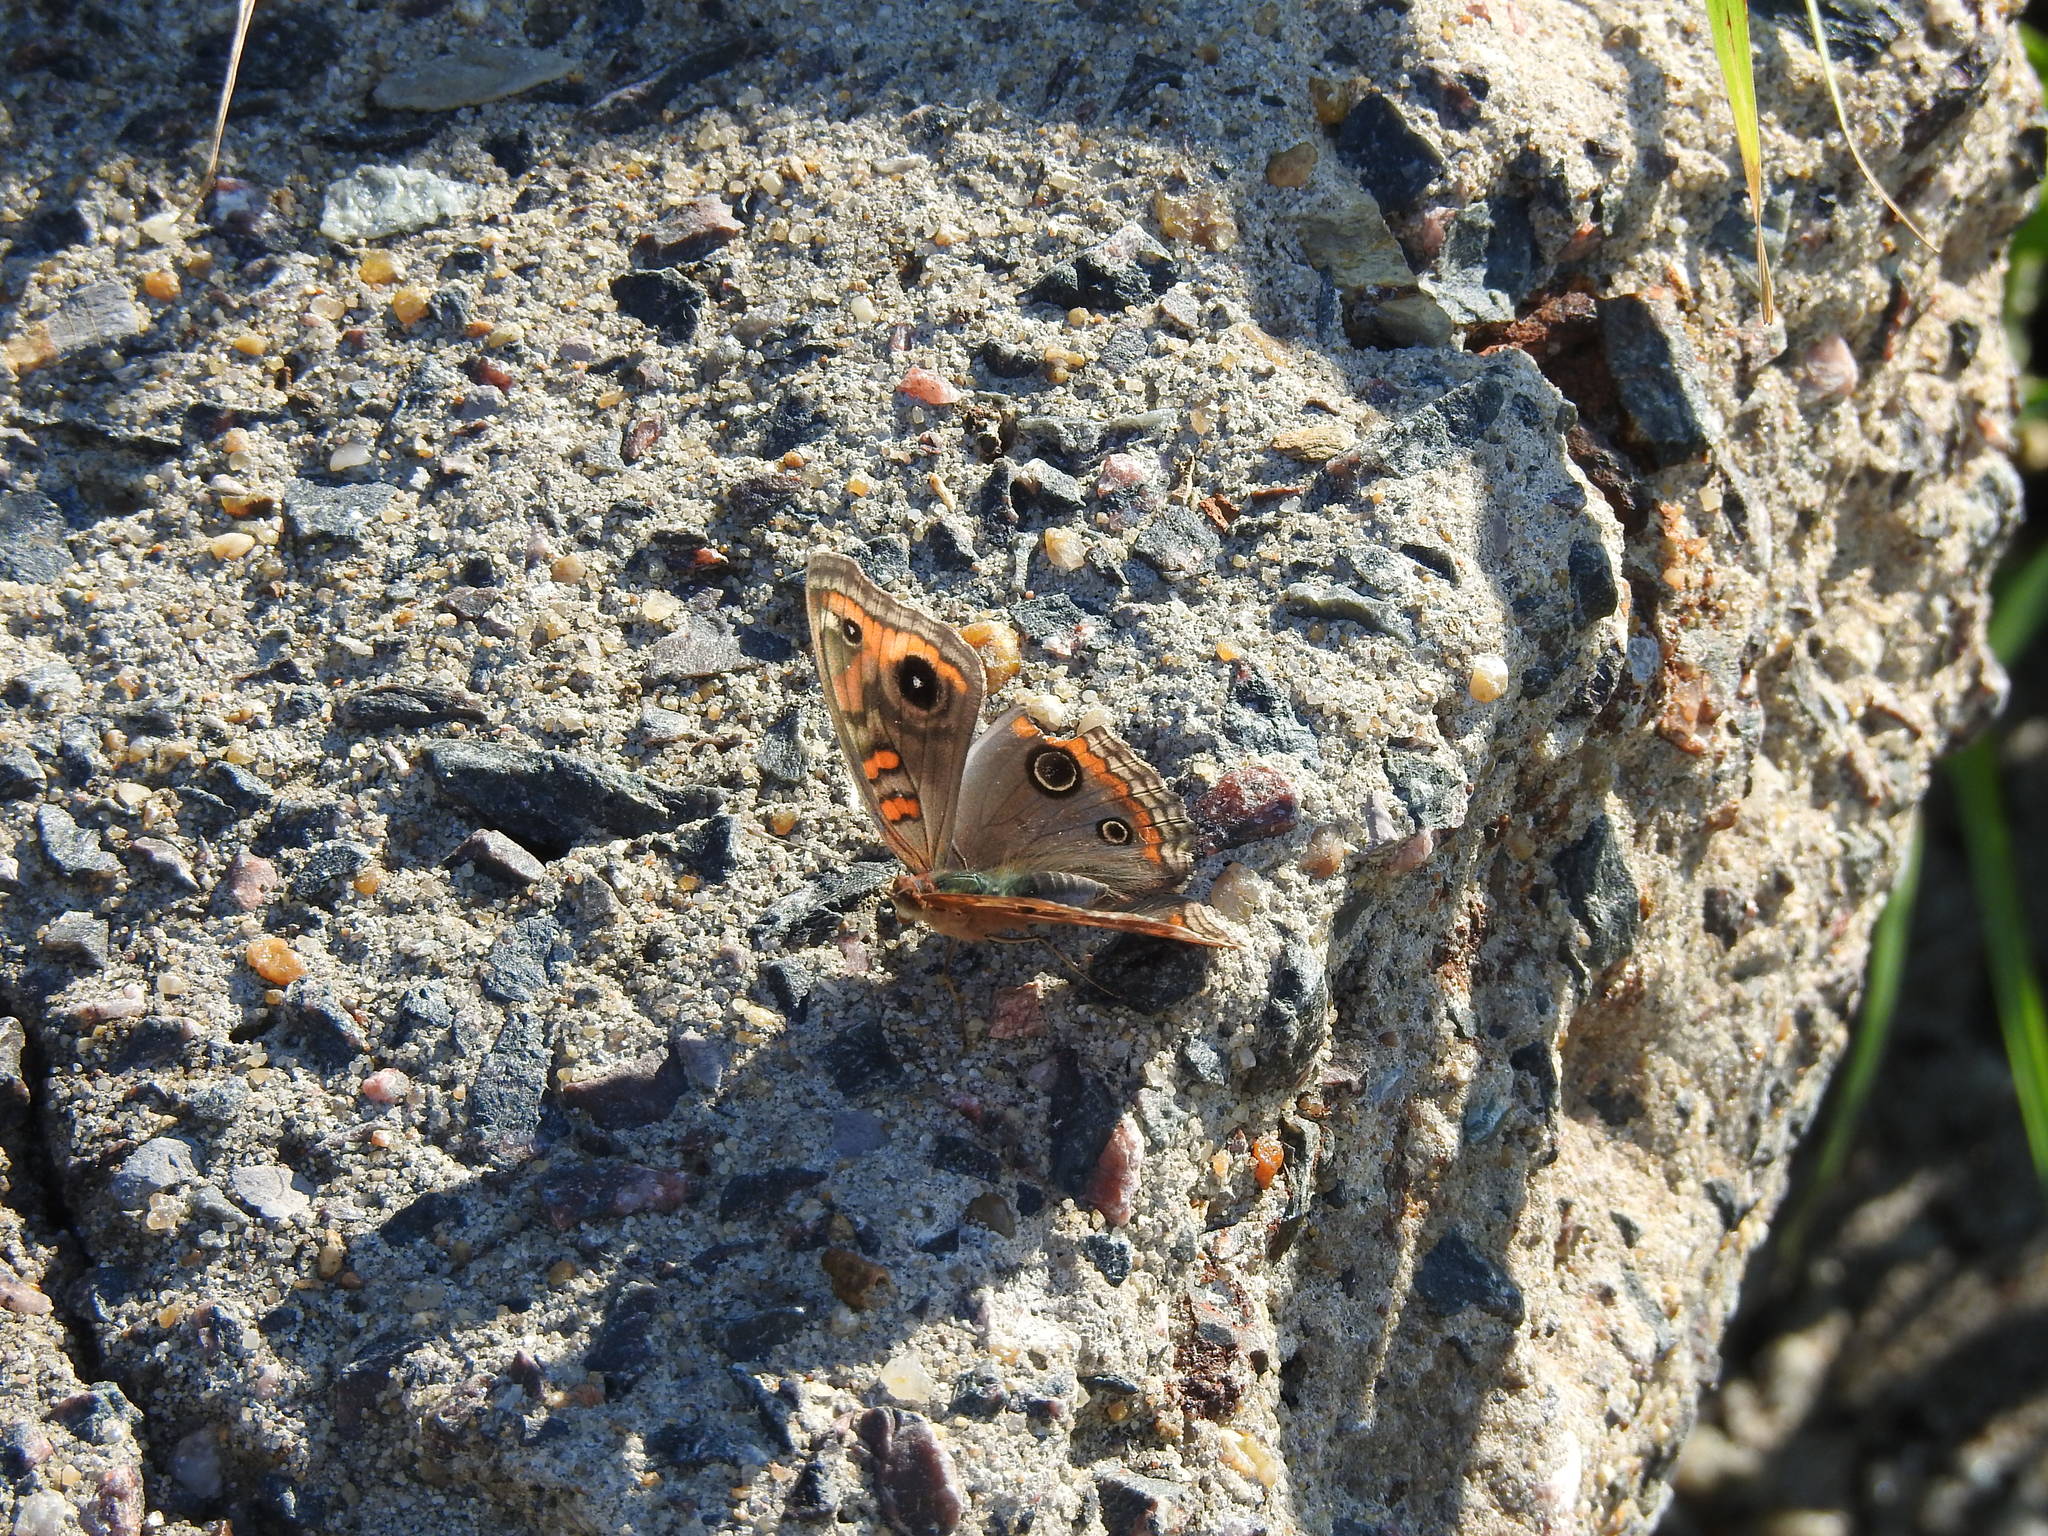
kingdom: Animalia
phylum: Arthropoda
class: Insecta
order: Lepidoptera
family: Nymphalidae
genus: Junonia
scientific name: Junonia lavinia
